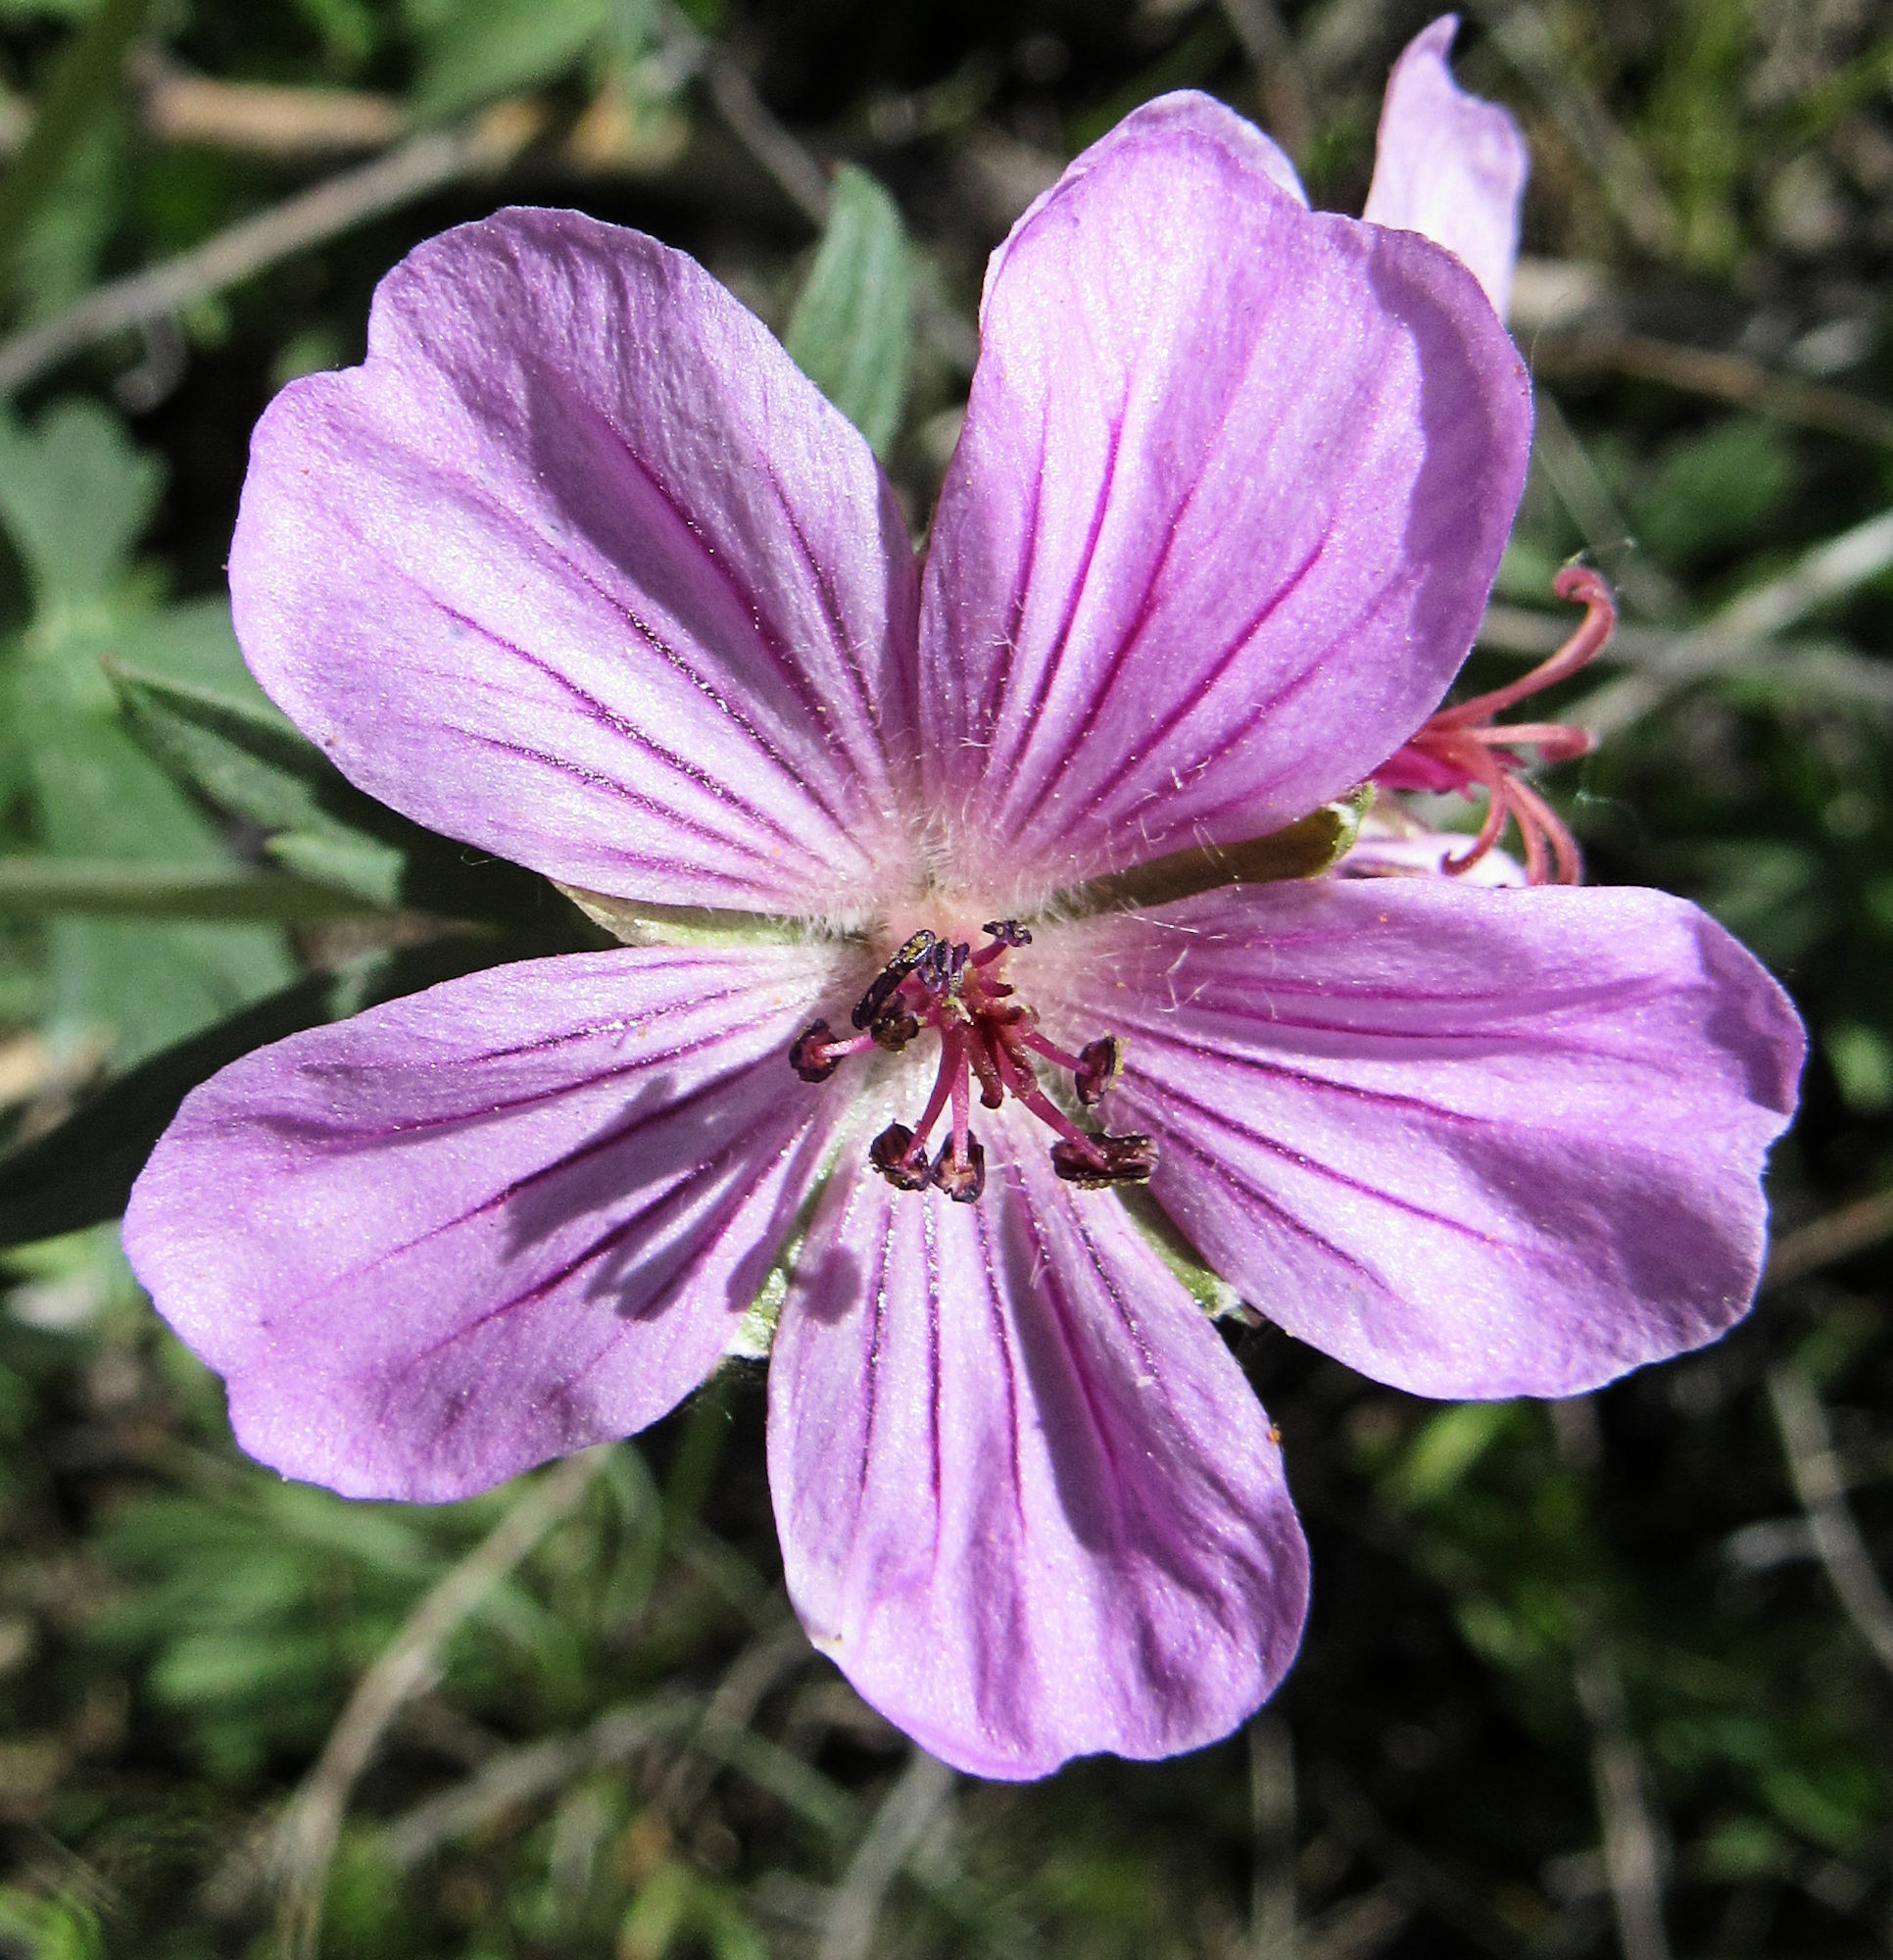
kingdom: Plantae
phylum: Tracheophyta
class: Magnoliopsida
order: Geraniales
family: Geraniaceae
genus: Geranium
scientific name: Geranium viscosissimum
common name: Purple geranium
